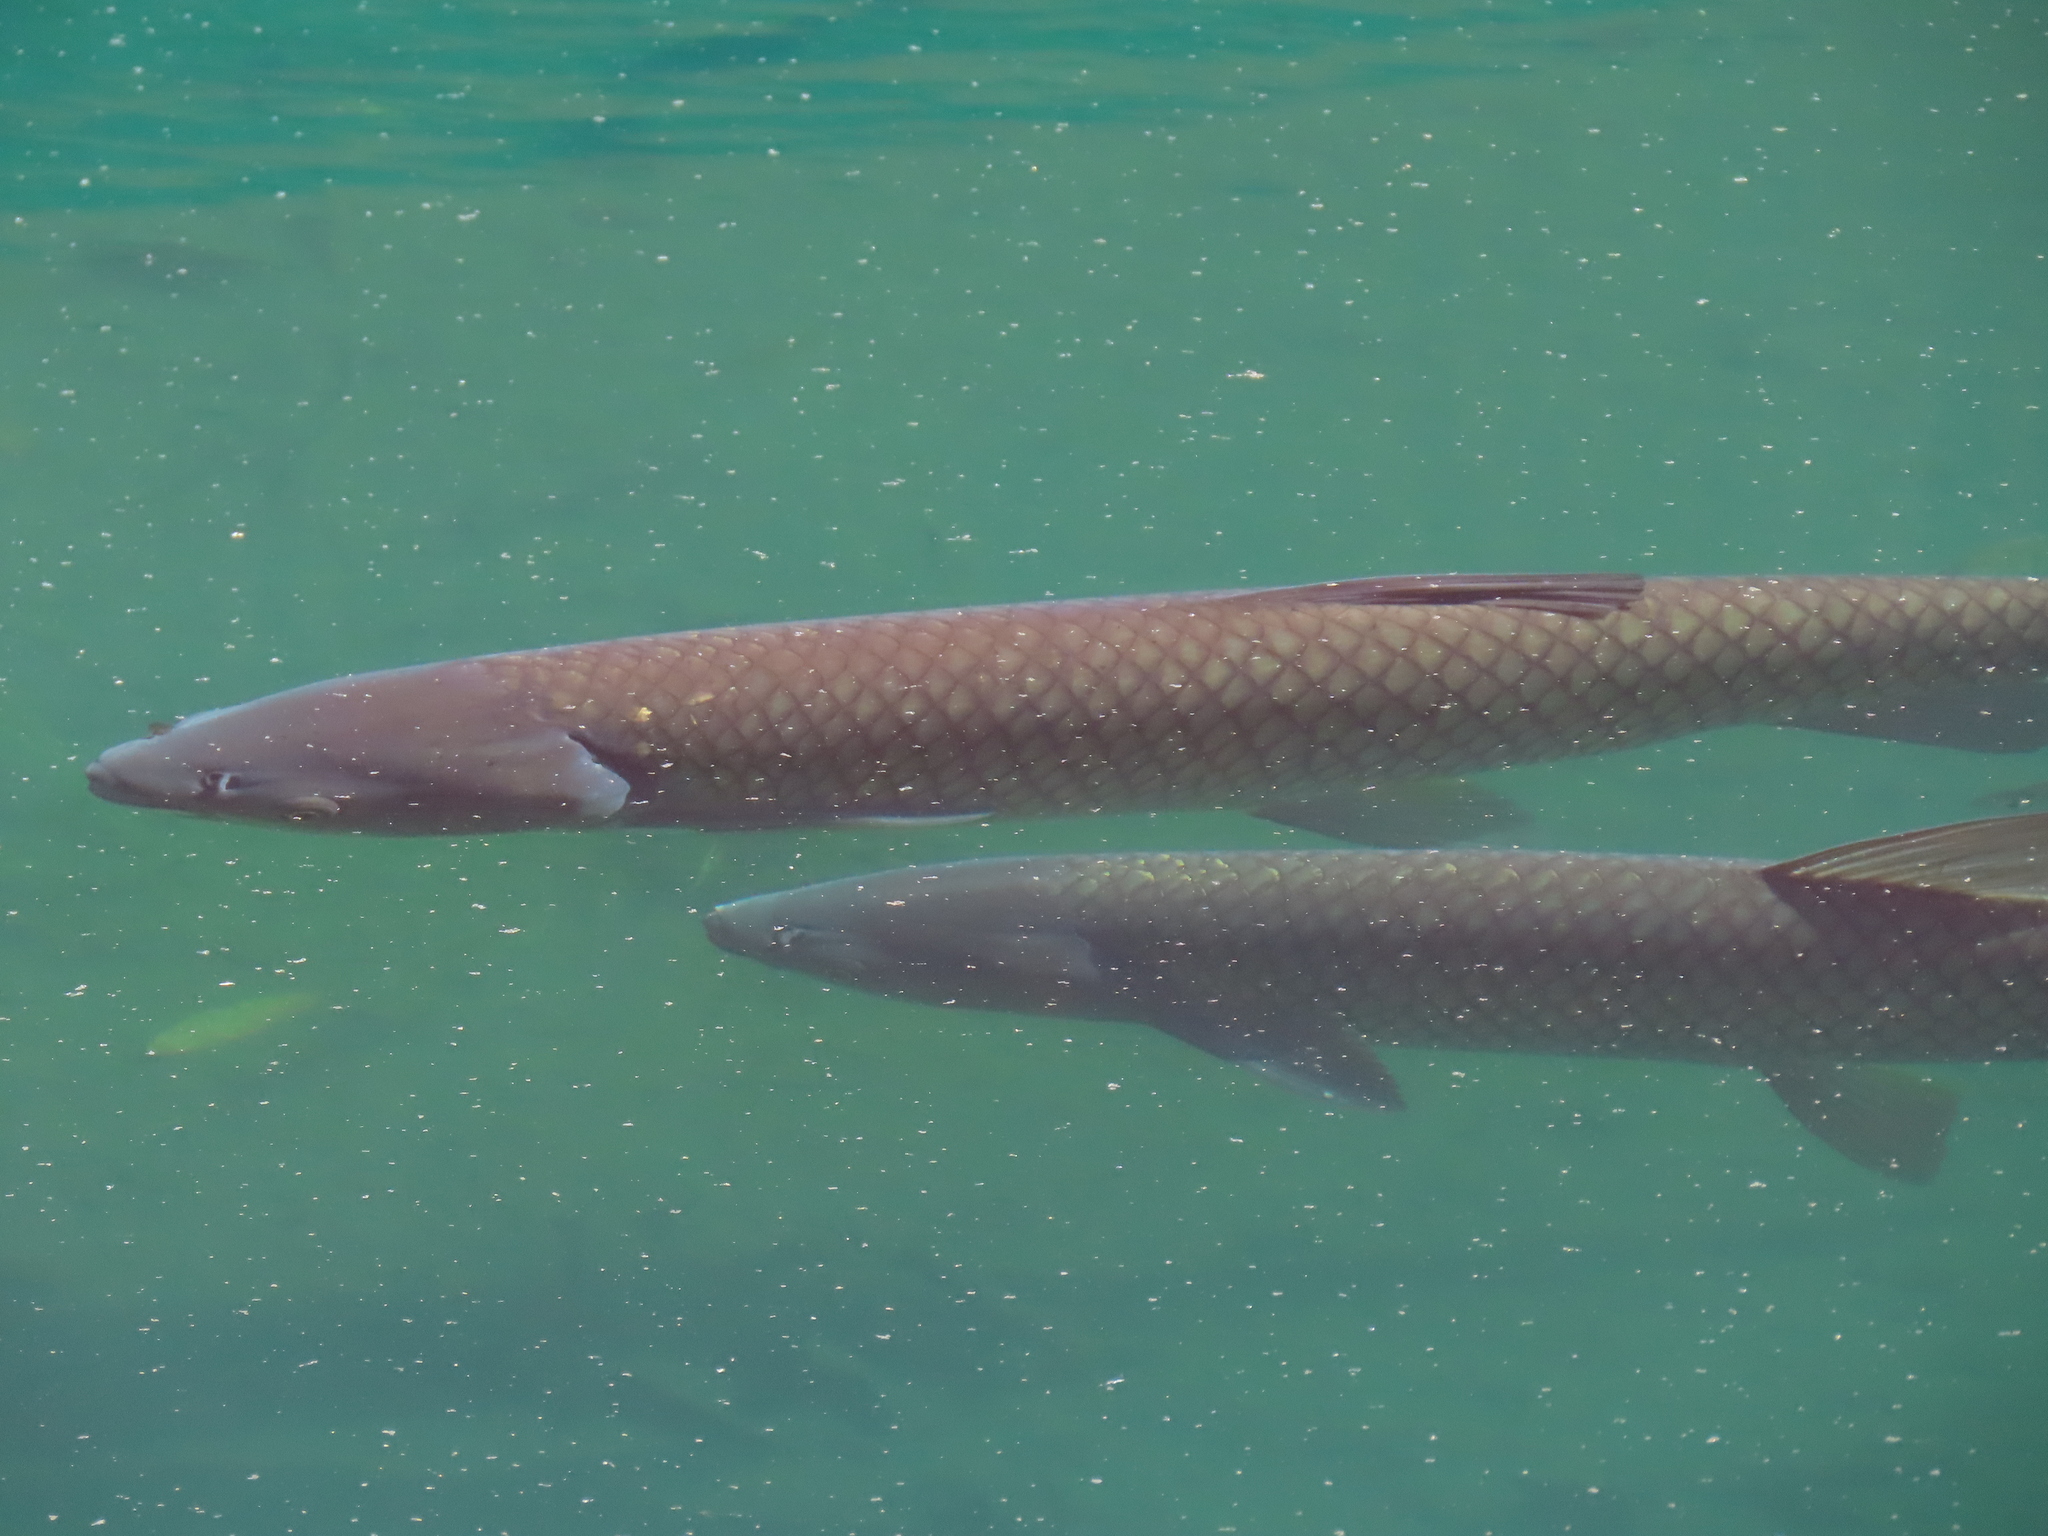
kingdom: Animalia
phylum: Chordata
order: Cypriniformes
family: Cyprinidae
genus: Ctenopharyngodon
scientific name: Ctenopharyngodon idella
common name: Grass carp
